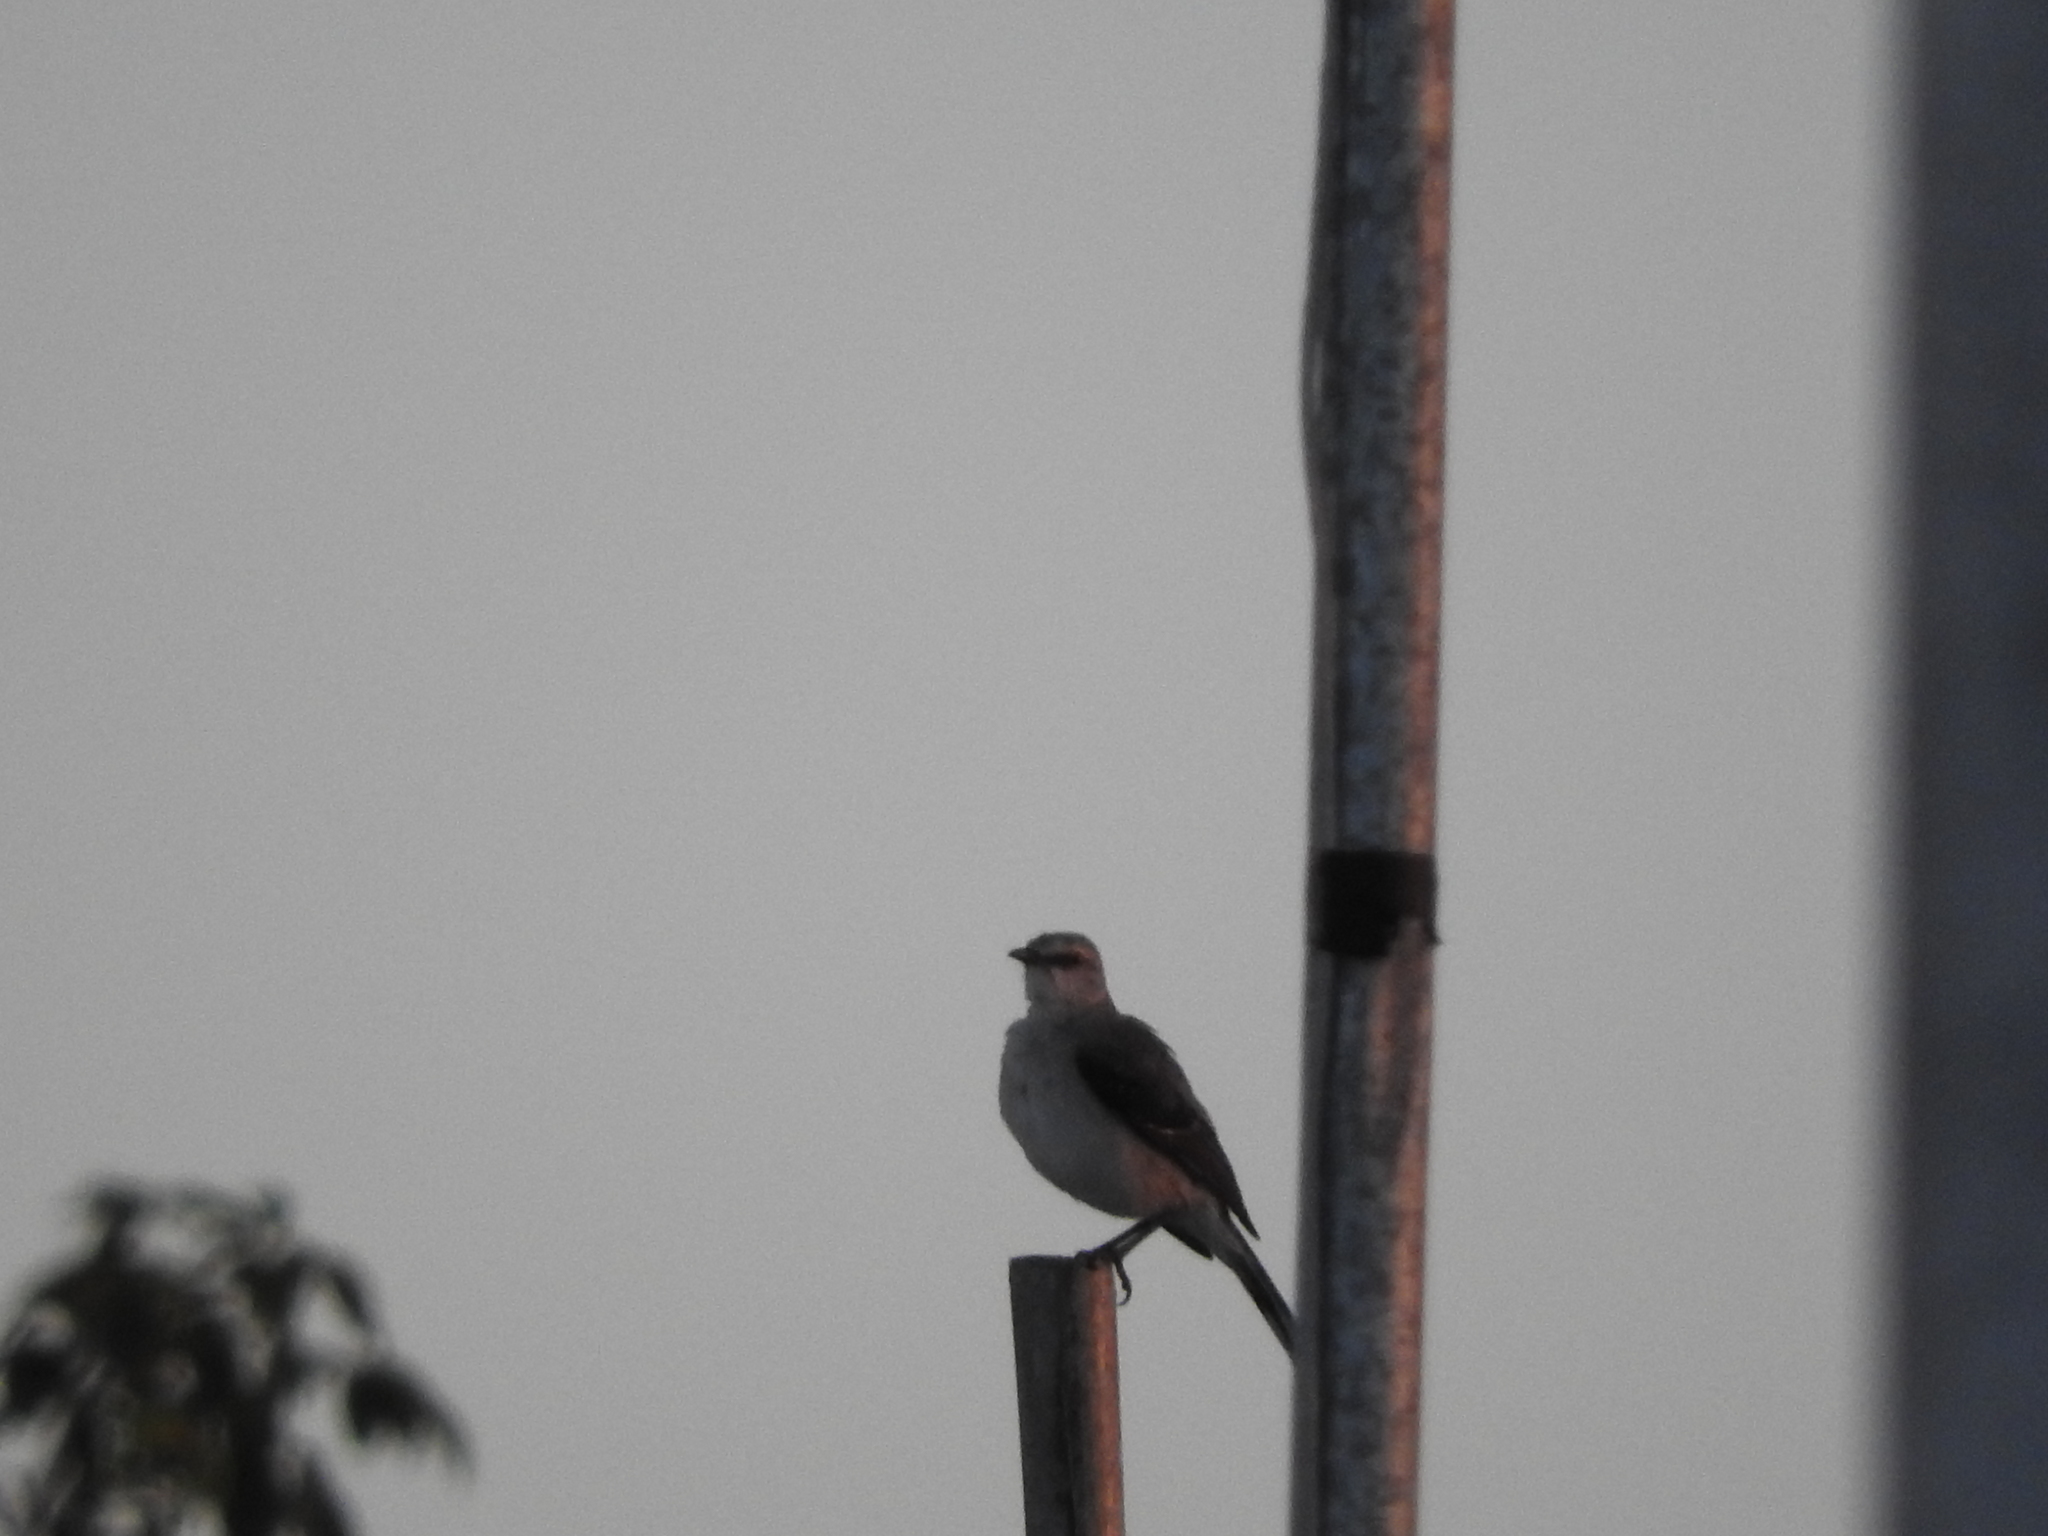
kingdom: Animalia
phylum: Chordata
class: Aves
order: Passeriformes
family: Mimidae
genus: Mimus
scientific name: Mimus gilvus
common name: Tropical mockingbird
